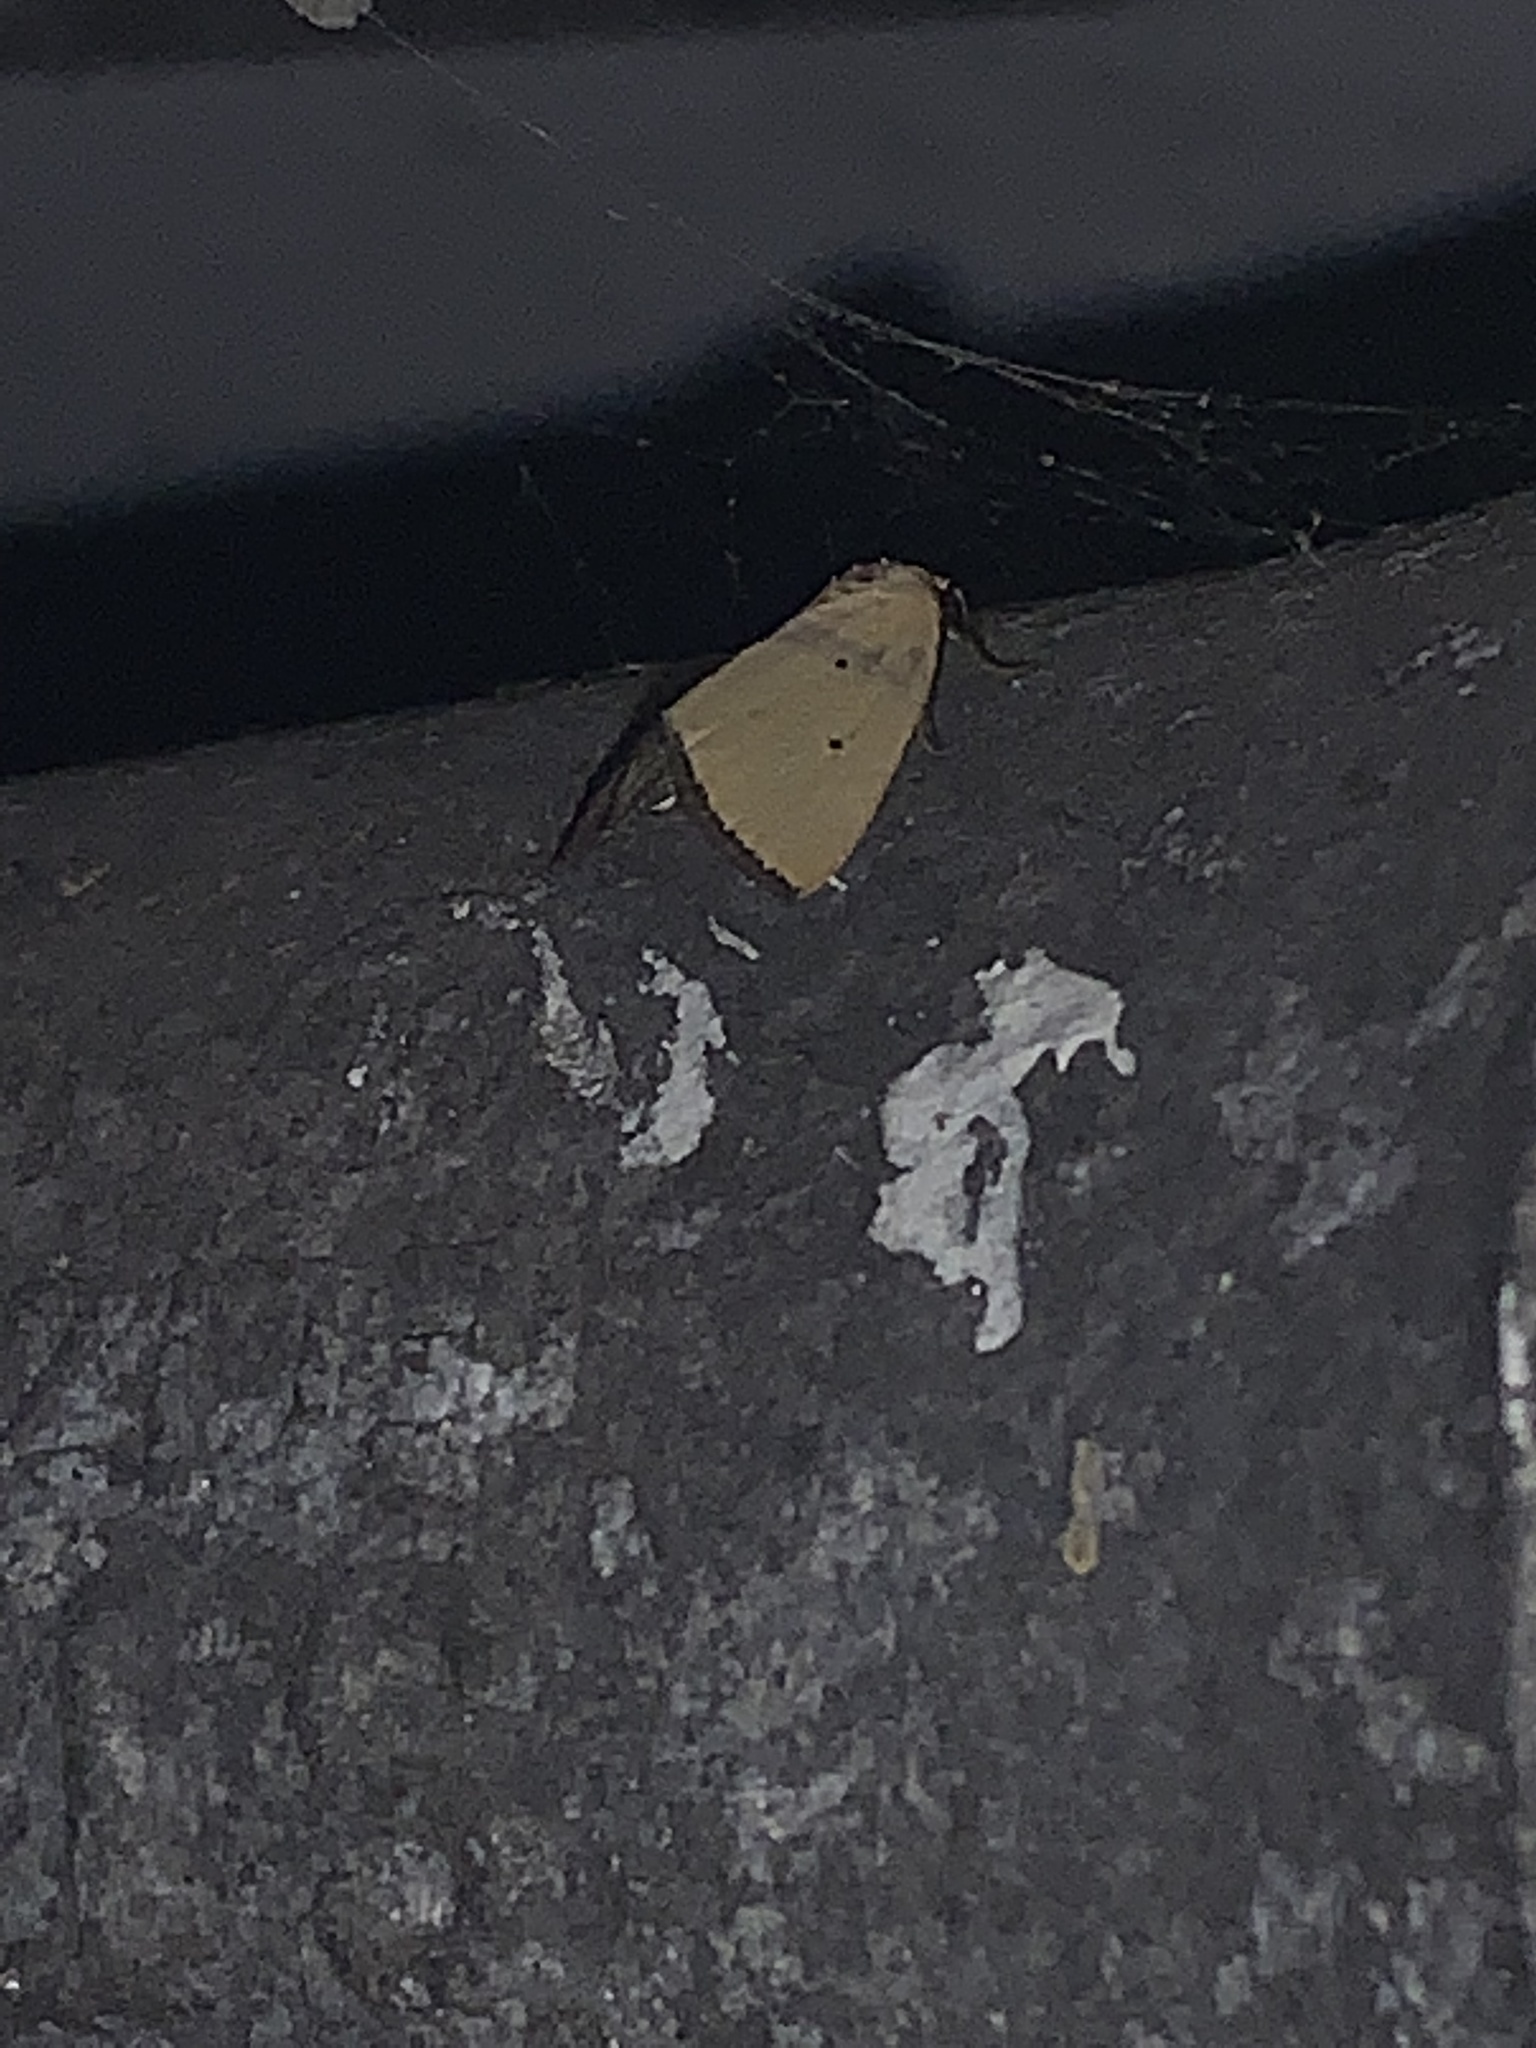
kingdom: Animalia
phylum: Arthropoda
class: Insecta
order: Lepidoptera
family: Noctuidae
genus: Marimatha
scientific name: Marimatha nigrofimbria
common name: Black-bordered lemon moth
